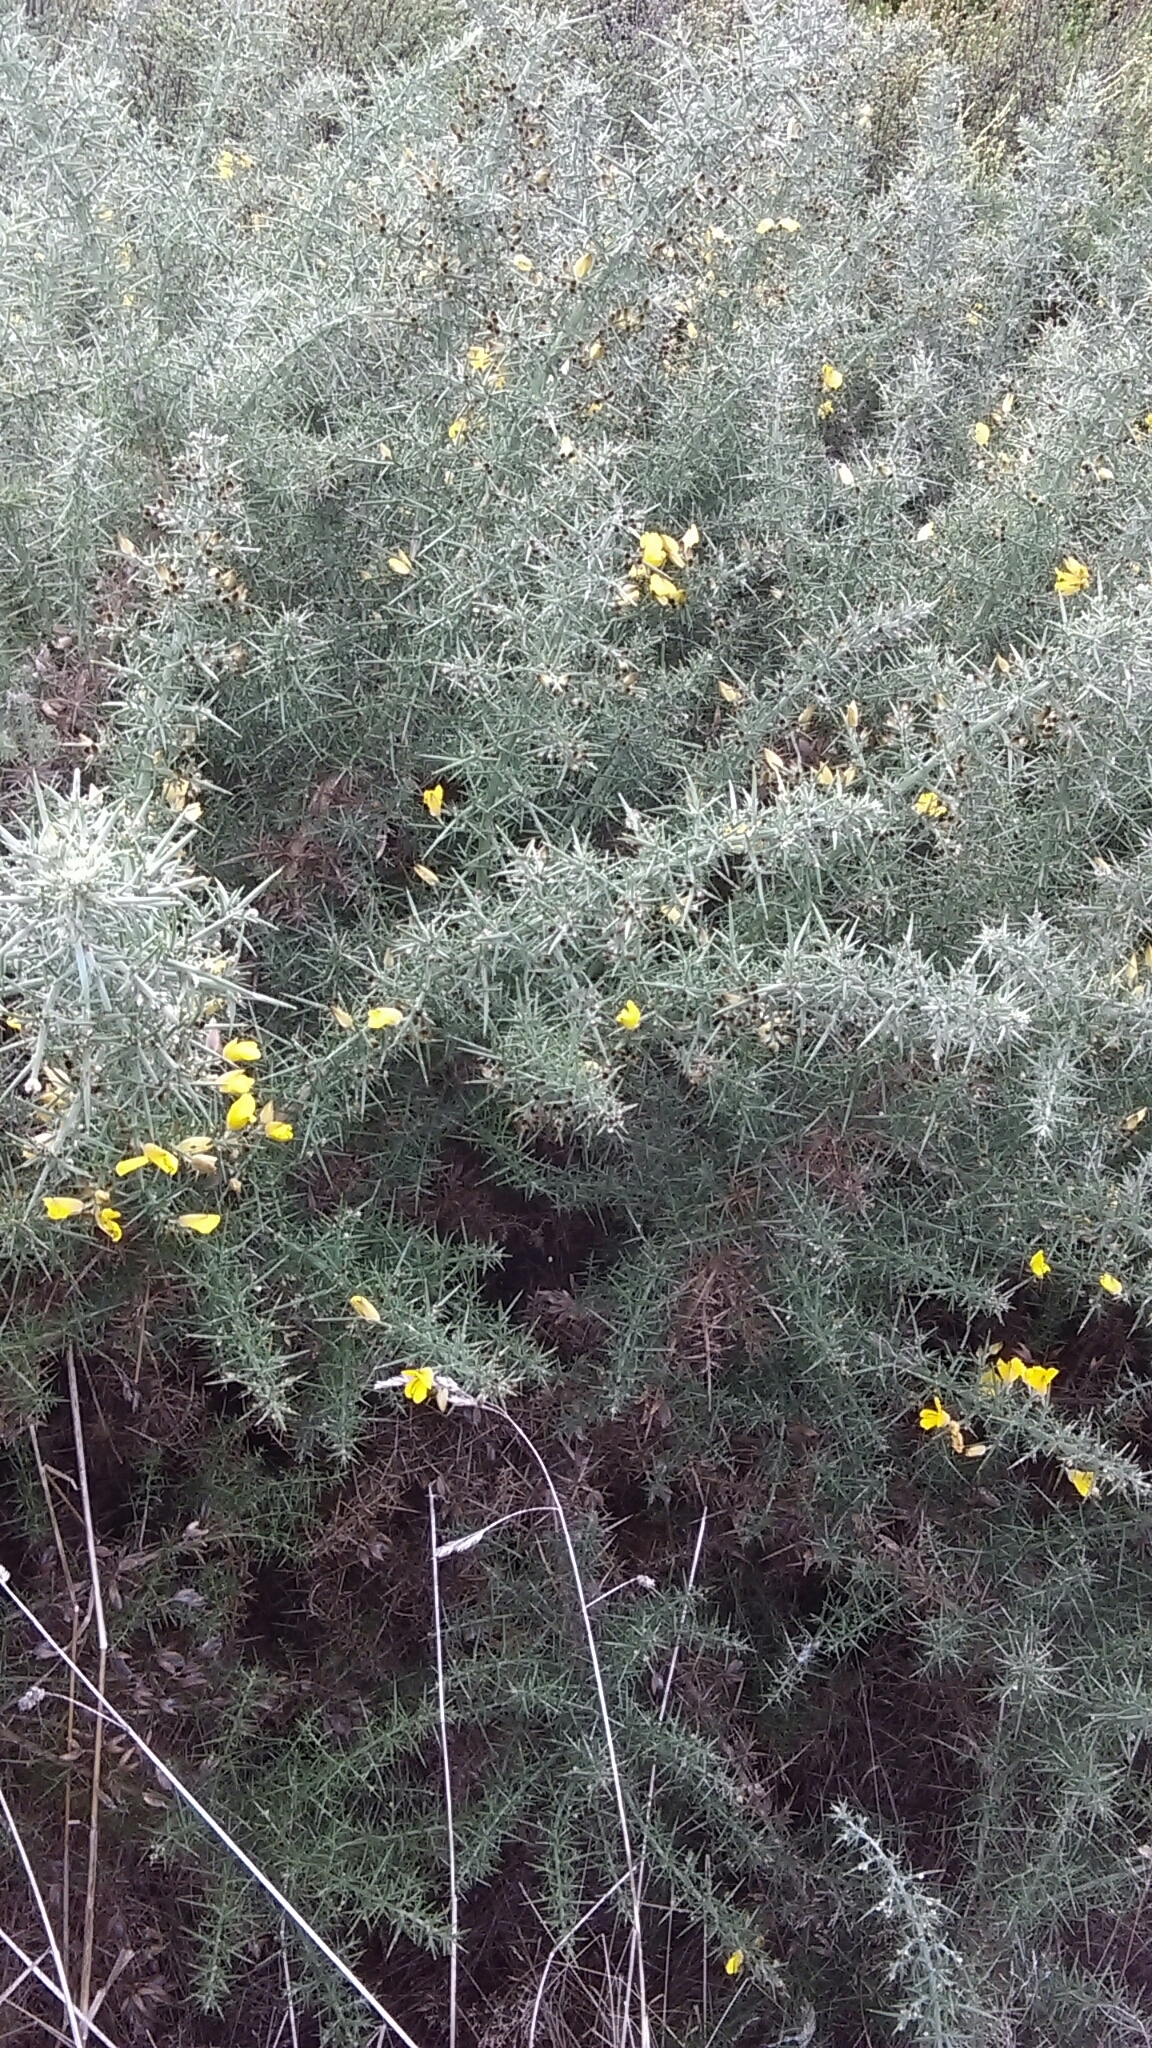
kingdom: Plantae
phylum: Tracheophyta
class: Magnoliopsida
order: Fabales
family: Fabaceae
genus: Ulex
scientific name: Ulex europaeus
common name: Common gorse
